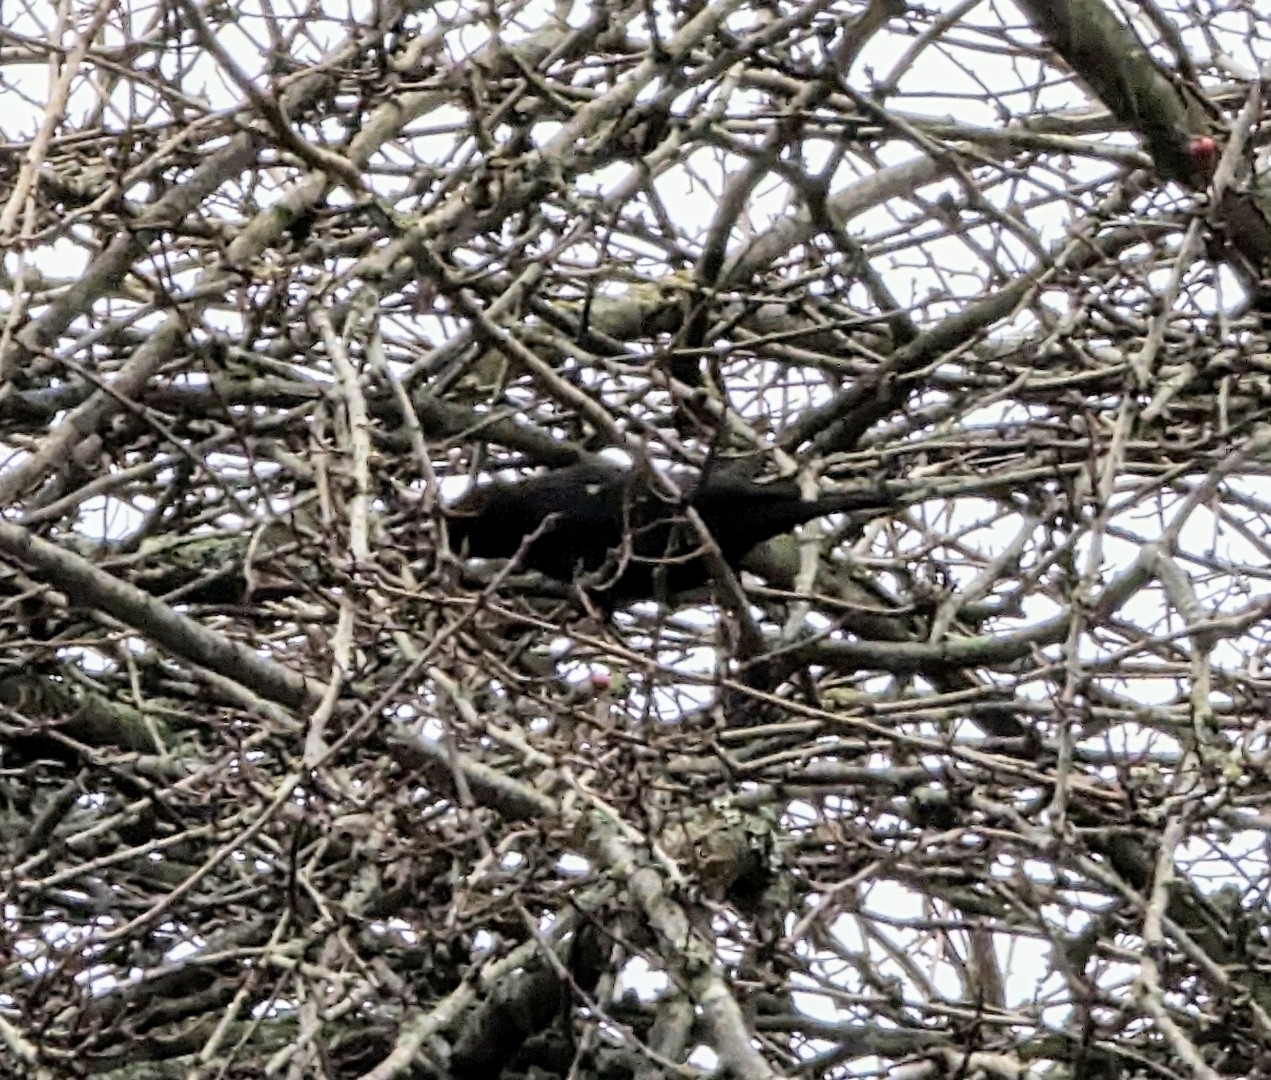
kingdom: Animalia
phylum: Chordata
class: Aves
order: Passeriformes
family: Icteridae
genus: Agelaius
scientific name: Agelaius phoeniceus
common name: Red-winged blackbird
